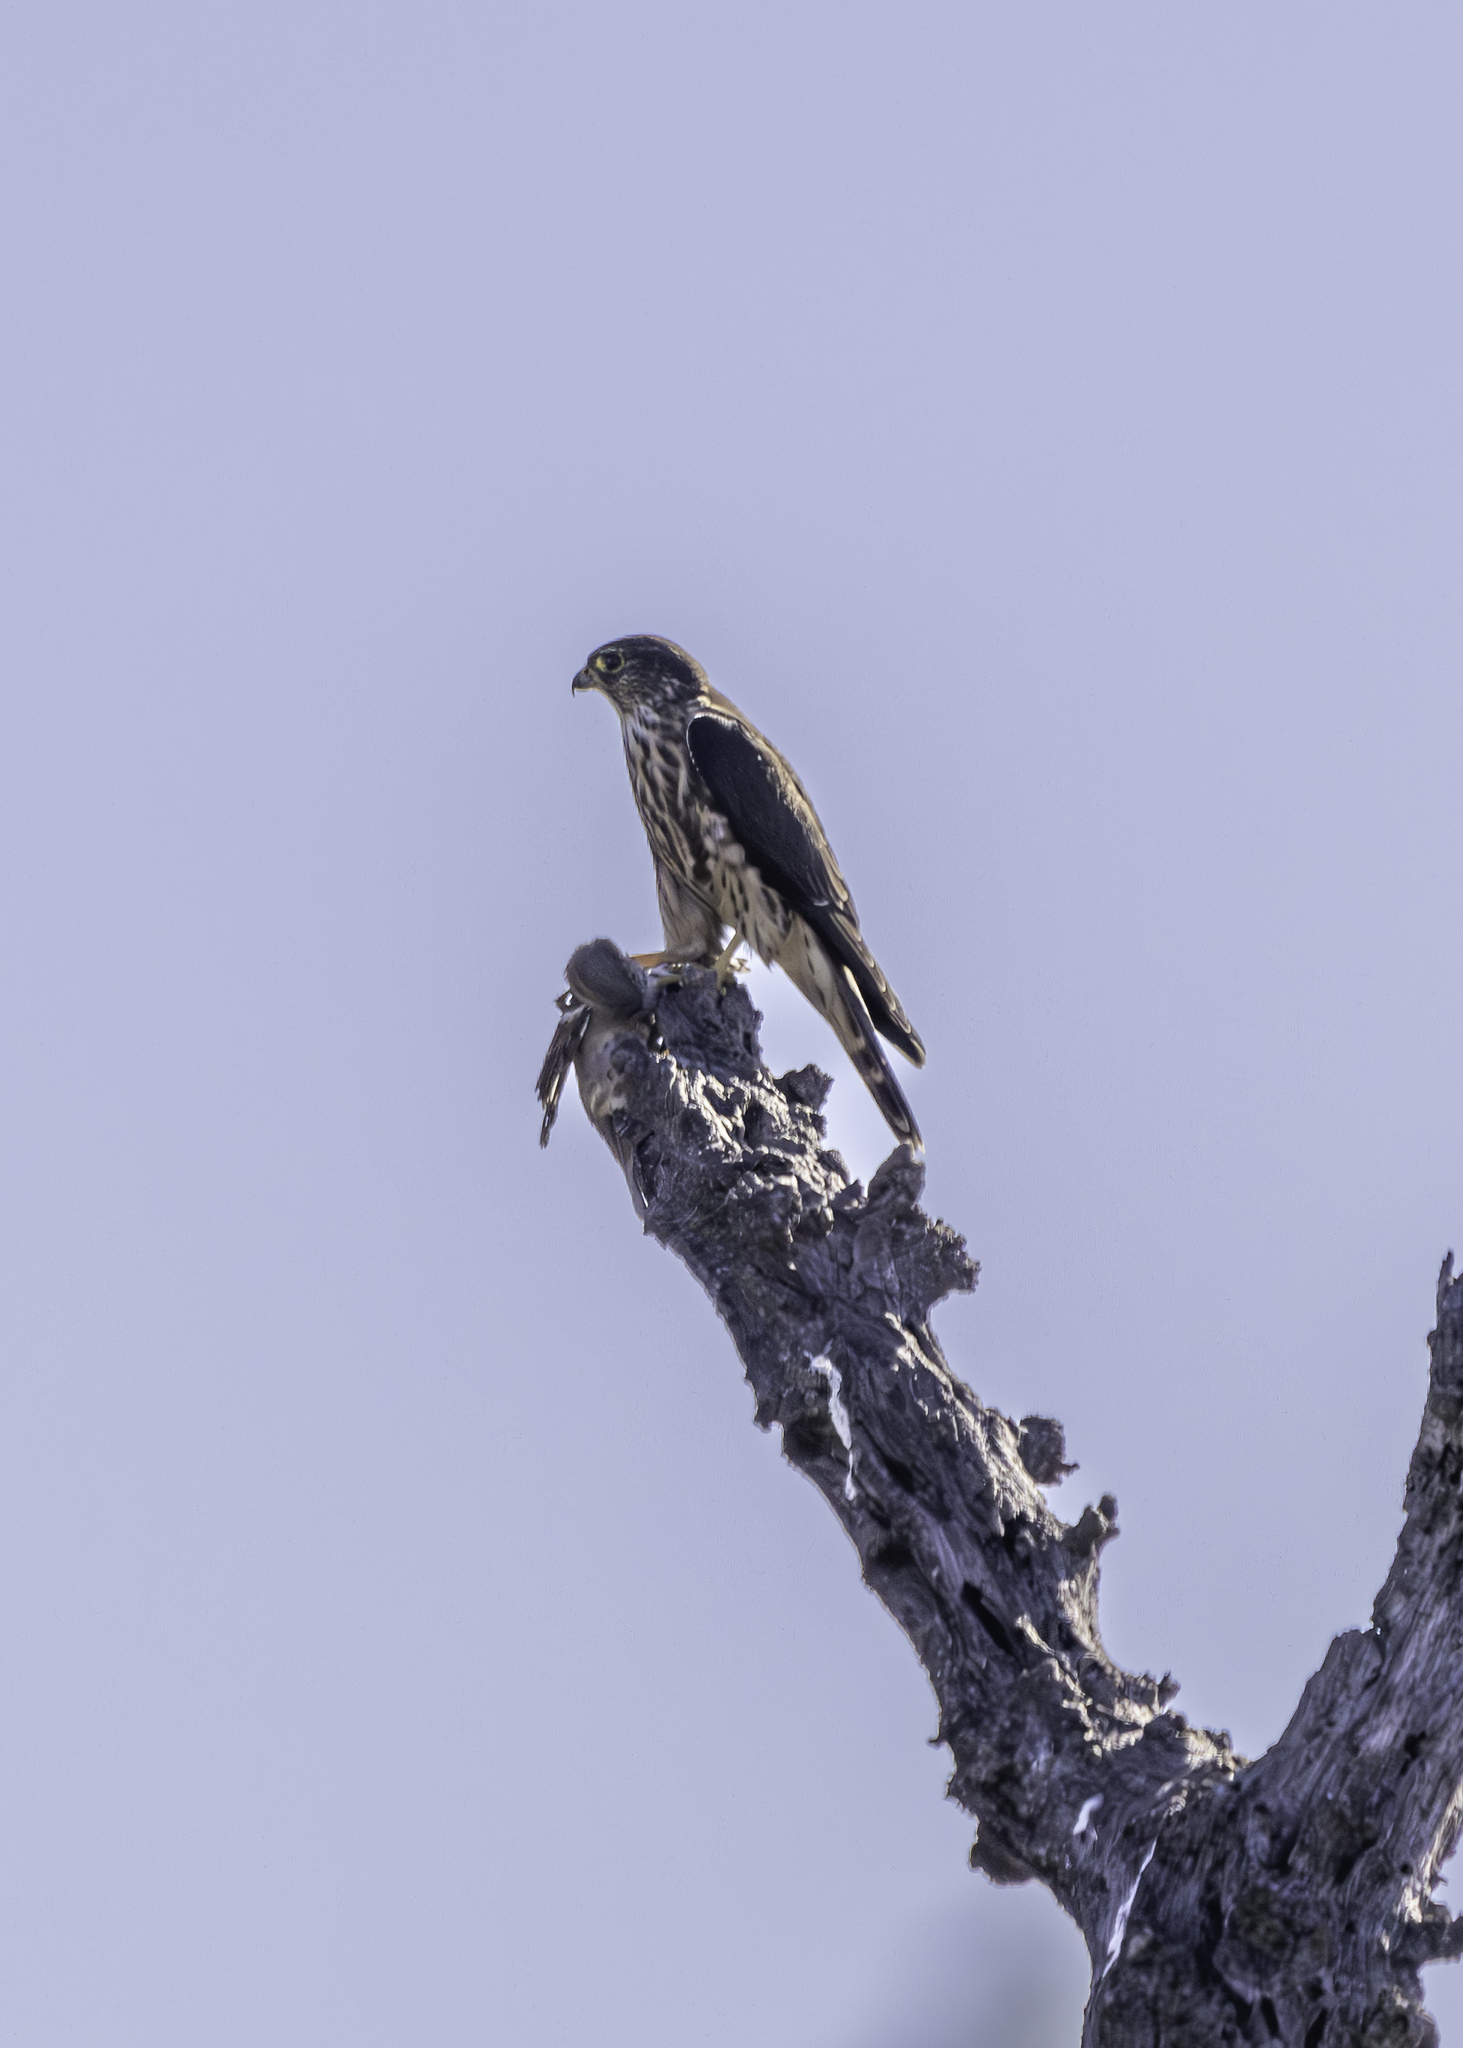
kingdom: Animalia
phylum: Chordata
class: Aves
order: Falconiformes
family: Falconidae
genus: Falco
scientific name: Falco columbarius
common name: Merlin
